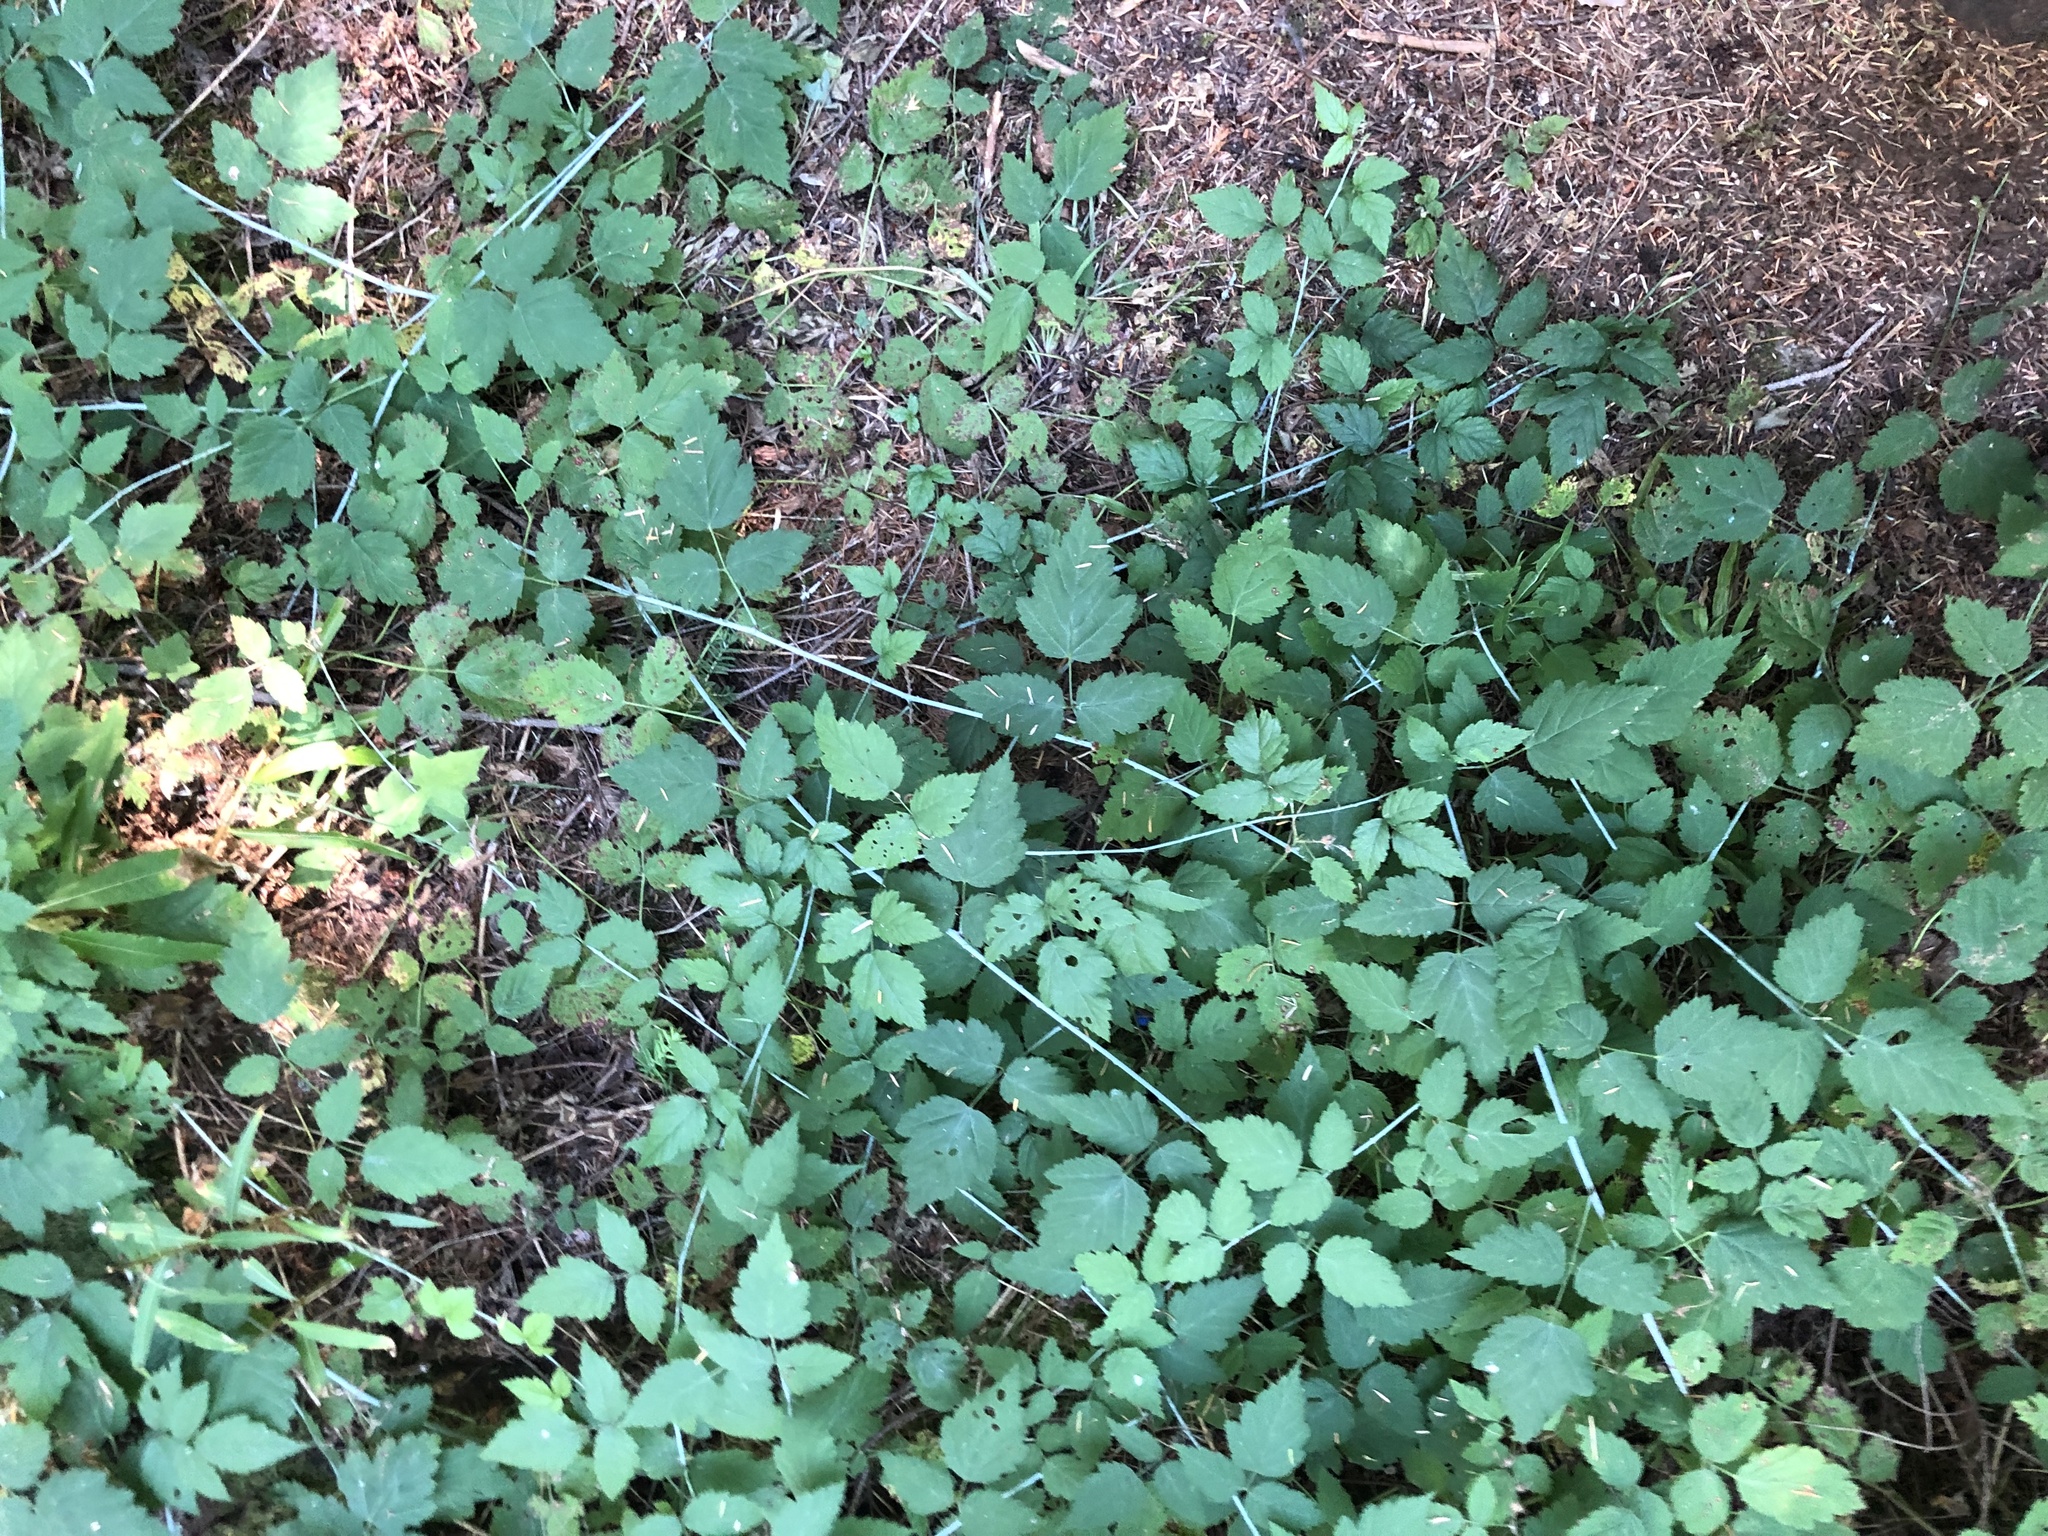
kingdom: Plantae
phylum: Tracheophyta
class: Magnoliopsida
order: Rosales
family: Rosaceae
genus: Rubus
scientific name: Rubus ursinus
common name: Pacific blackberry
